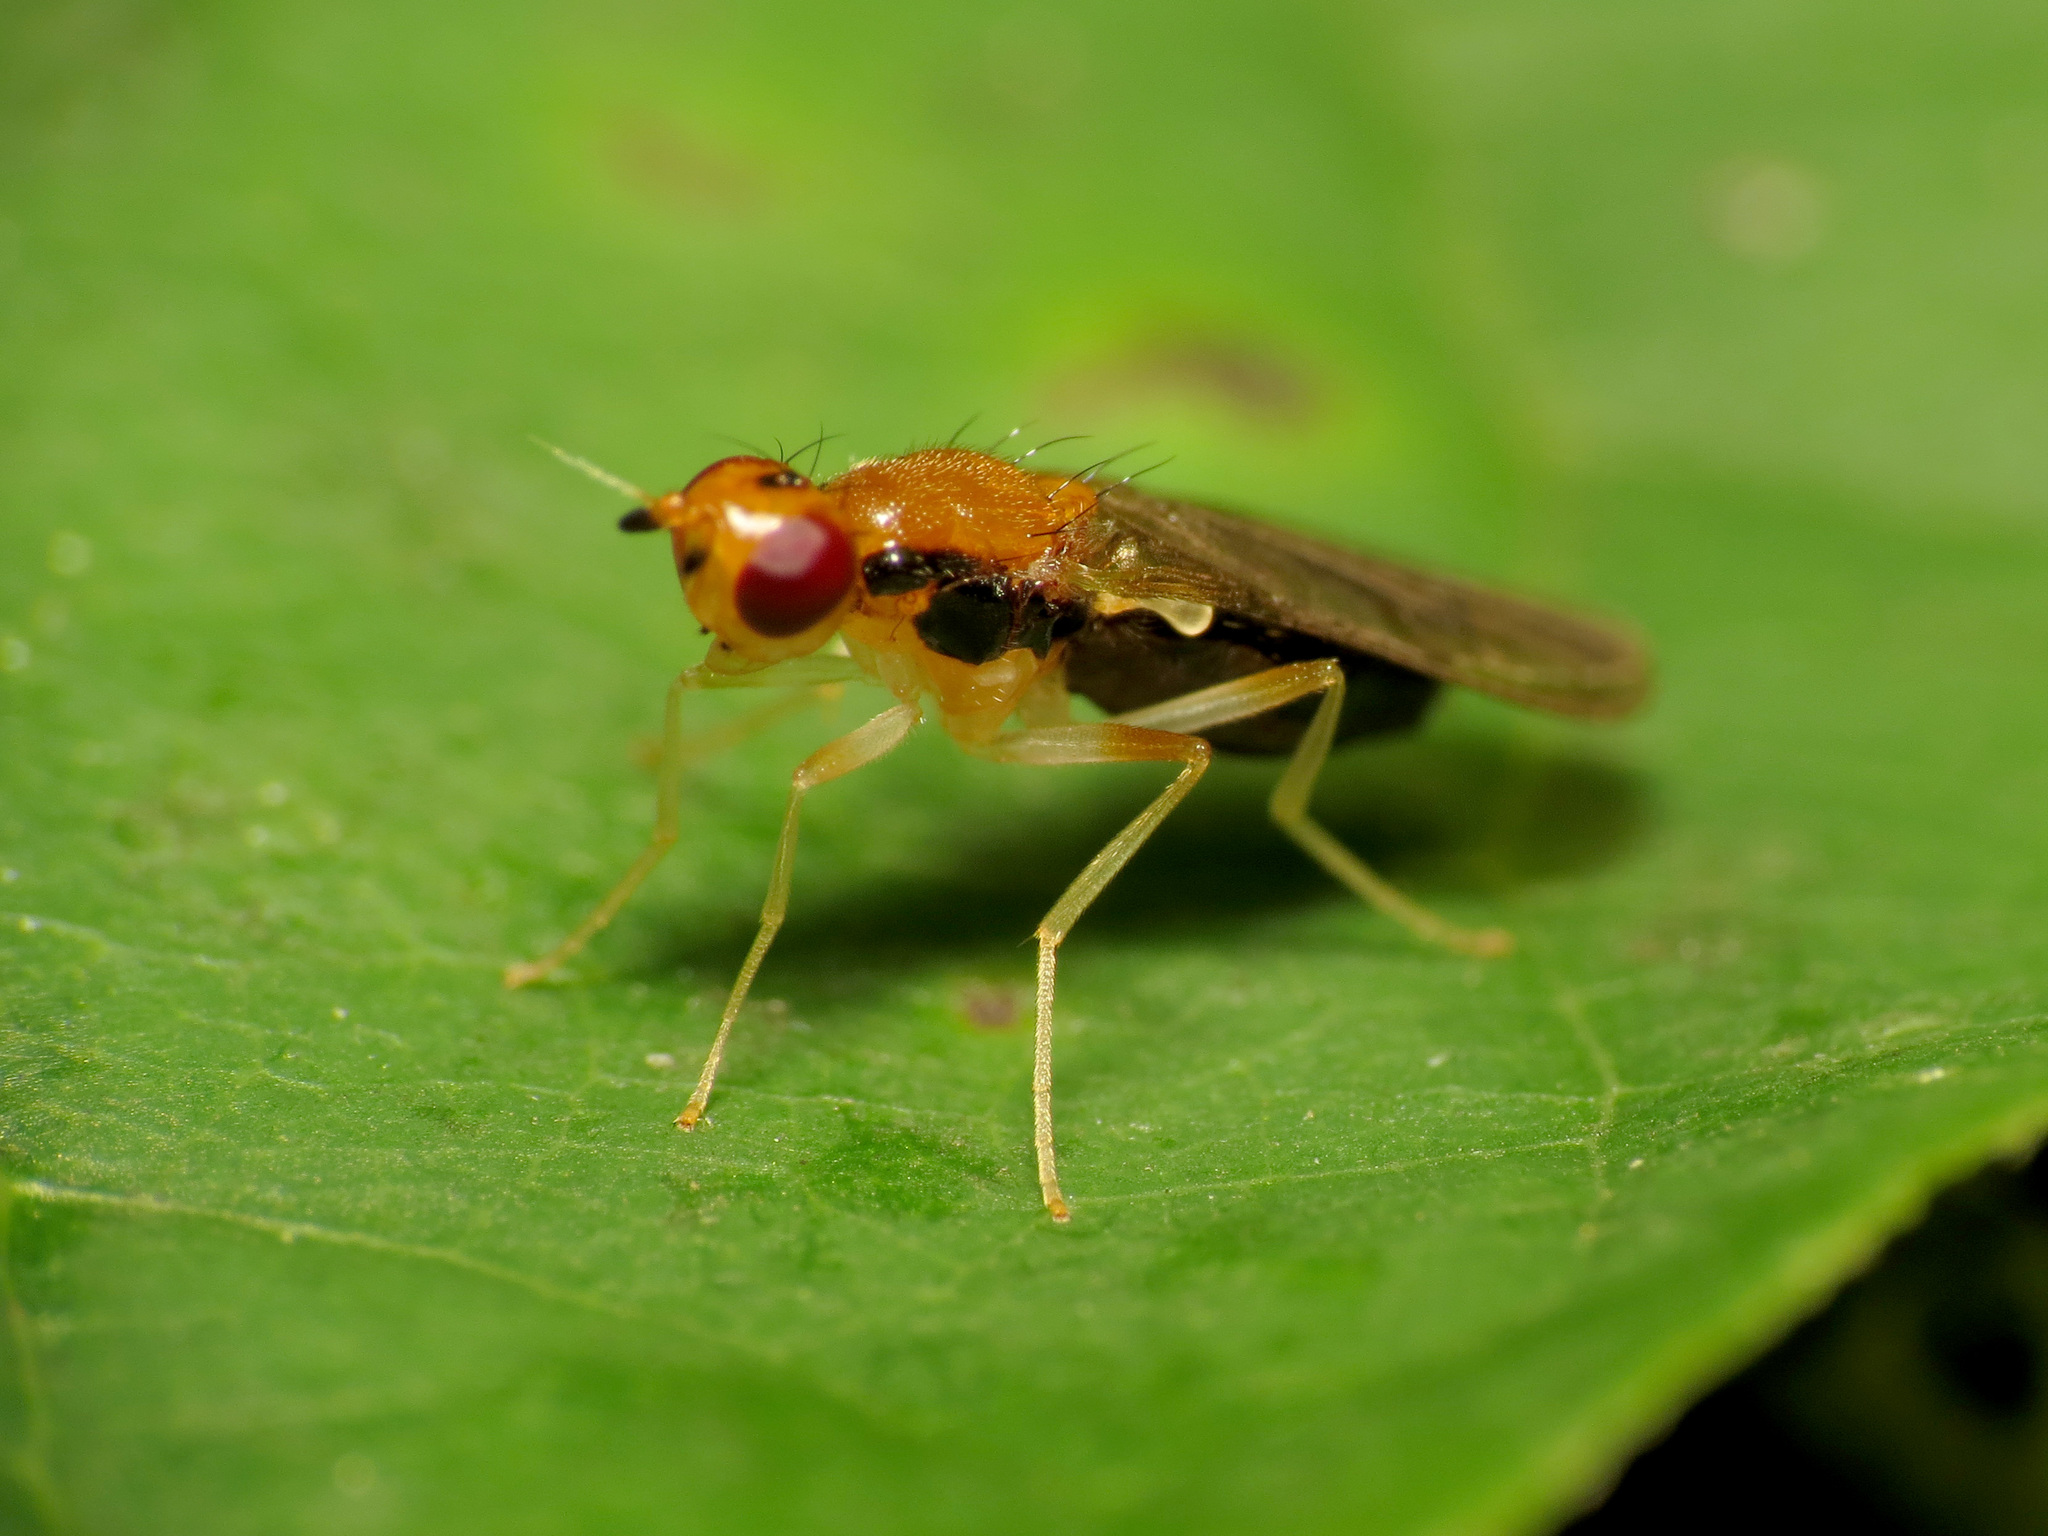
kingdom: Animalia
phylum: Arthropoda
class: Insecta
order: Diptera
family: Psilidae
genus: Psila
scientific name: Psila lateralis
